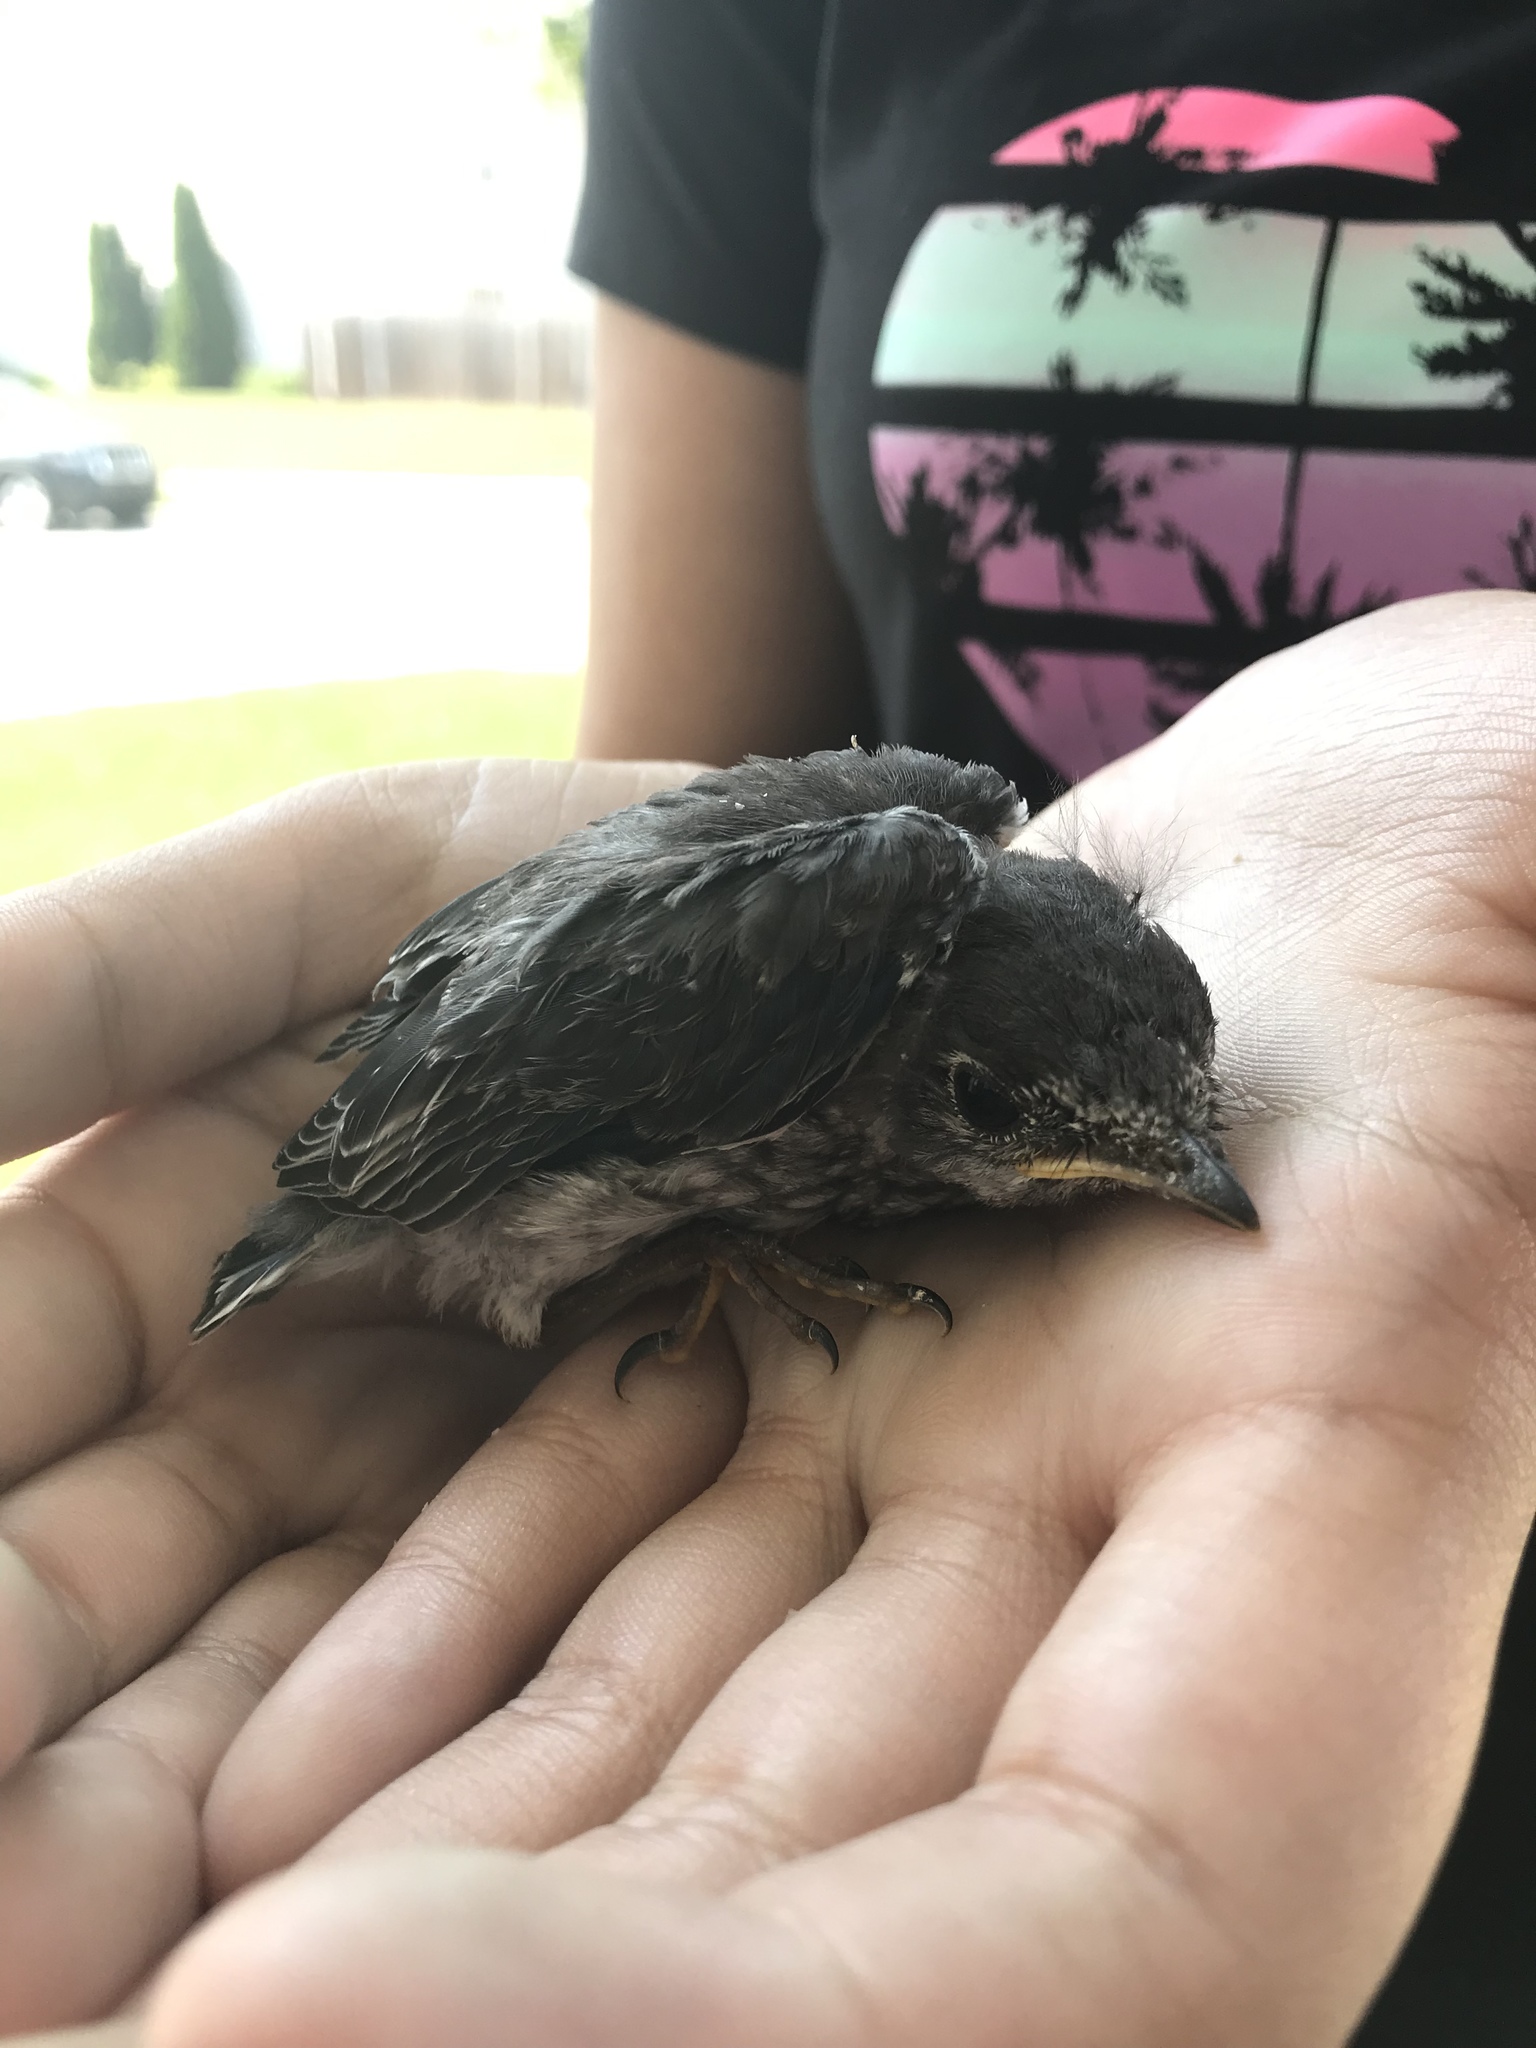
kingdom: Animalia
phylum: Chordata
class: Aves
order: Passeriformes
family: Turdidae
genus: Sialia
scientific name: Sialia sialis
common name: Eastern bluebird
